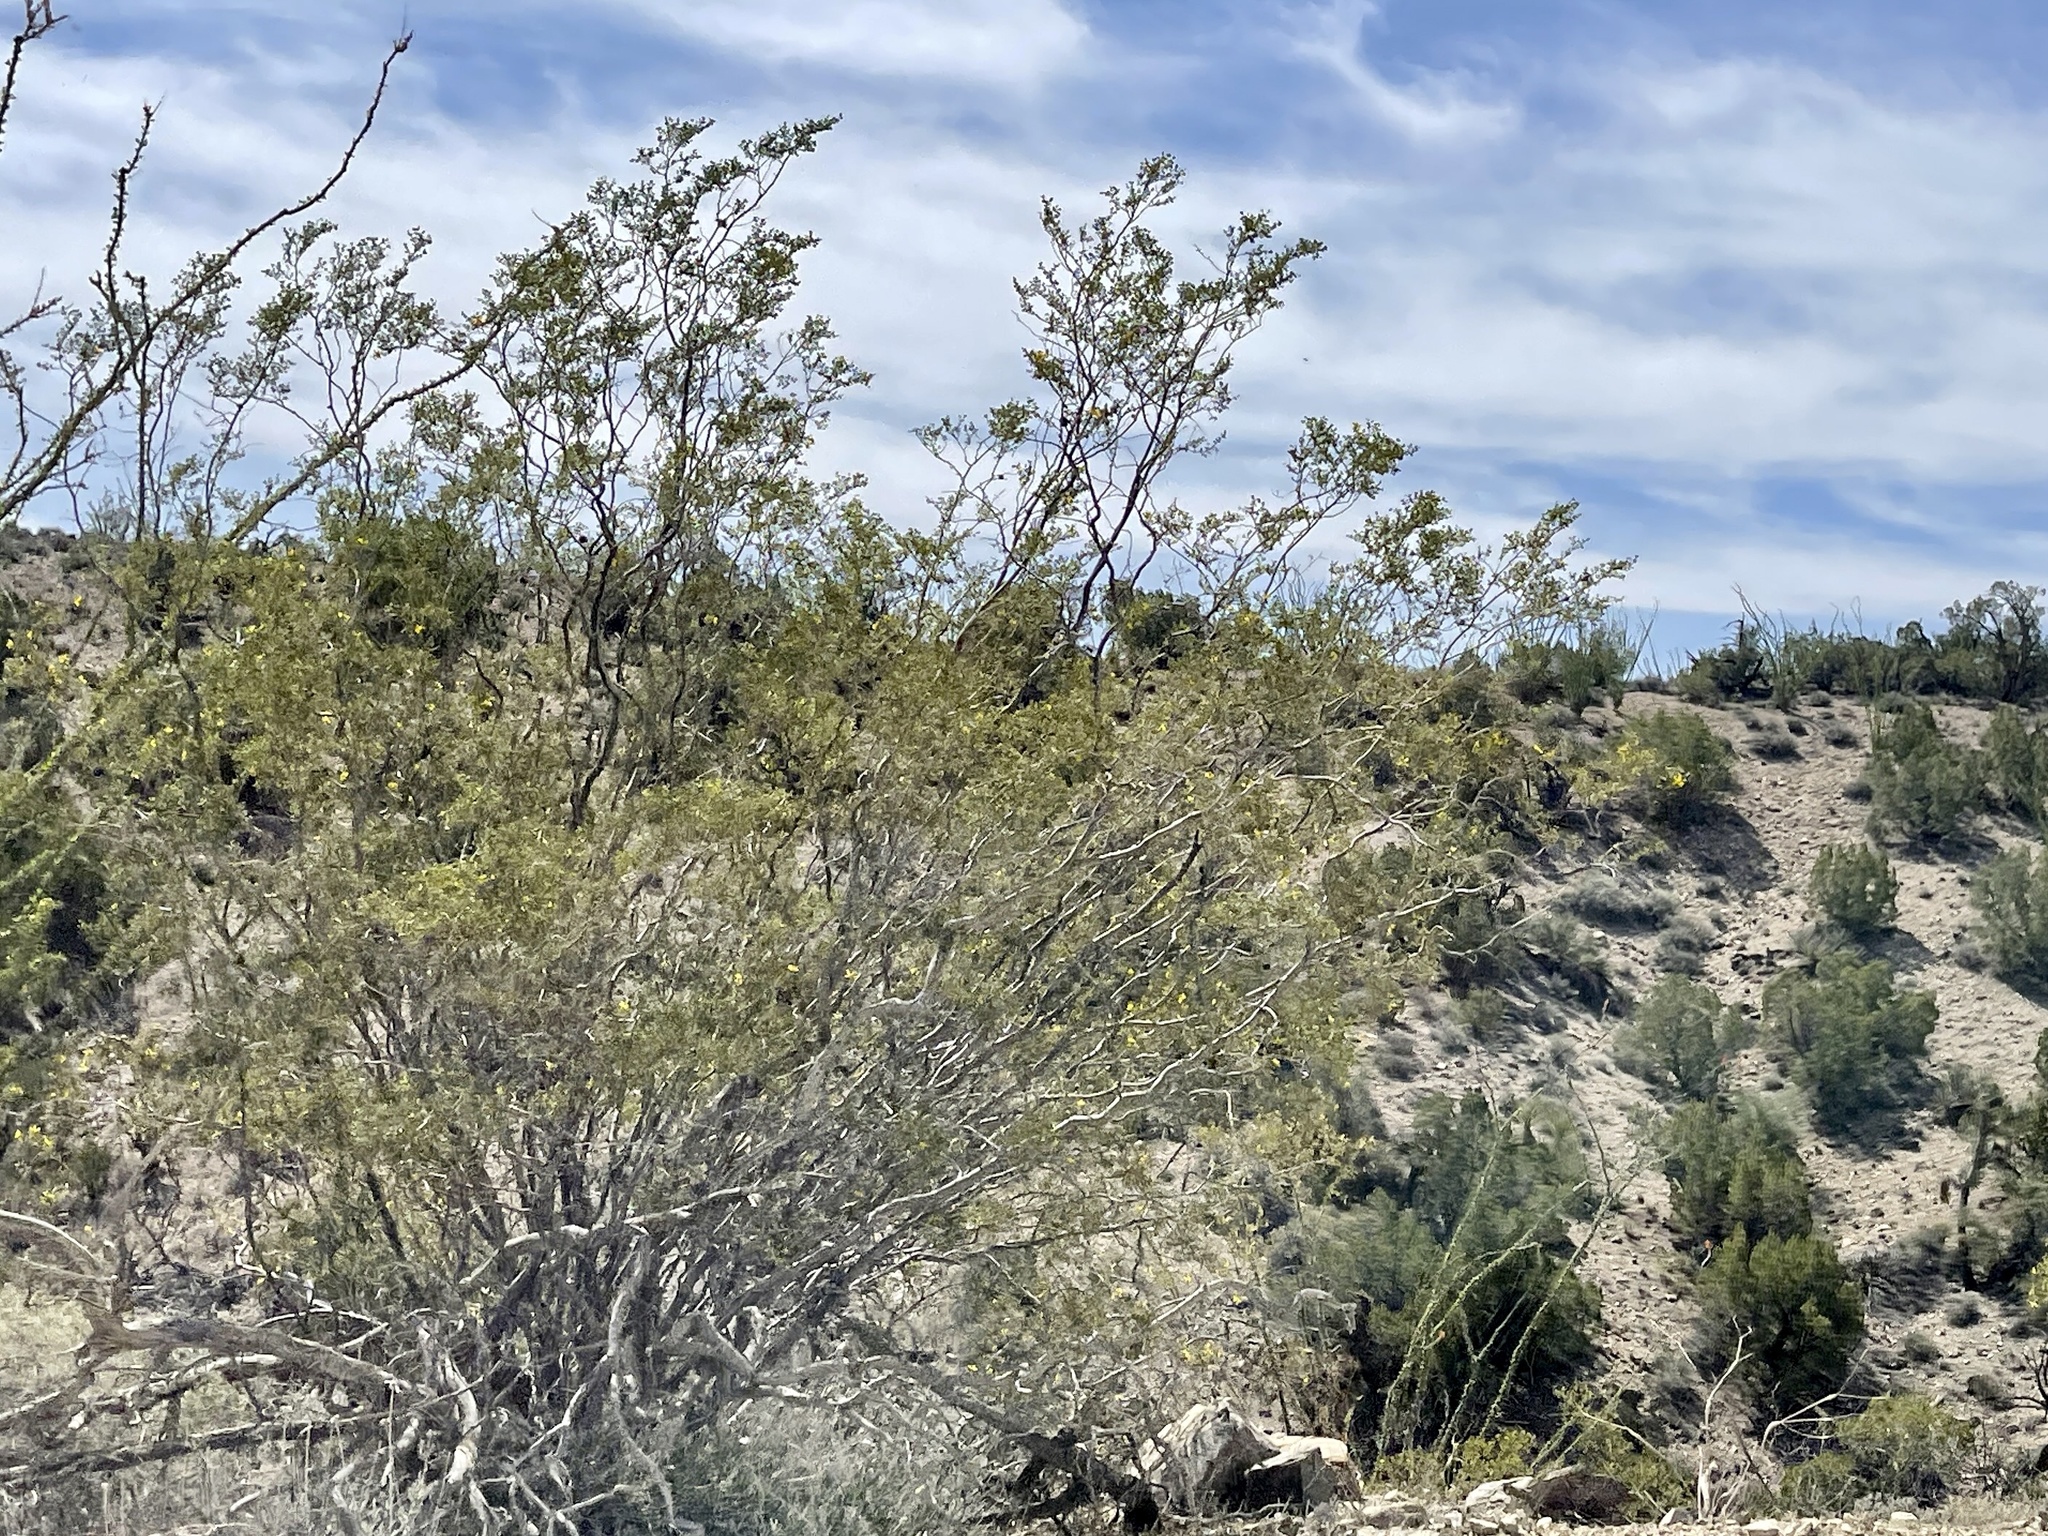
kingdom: Plantae
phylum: Tracheophyta
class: Magnoliopsida
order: Zygophyllales
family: Zygophyllaceae
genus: Larrea
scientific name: Larrea tridentata
